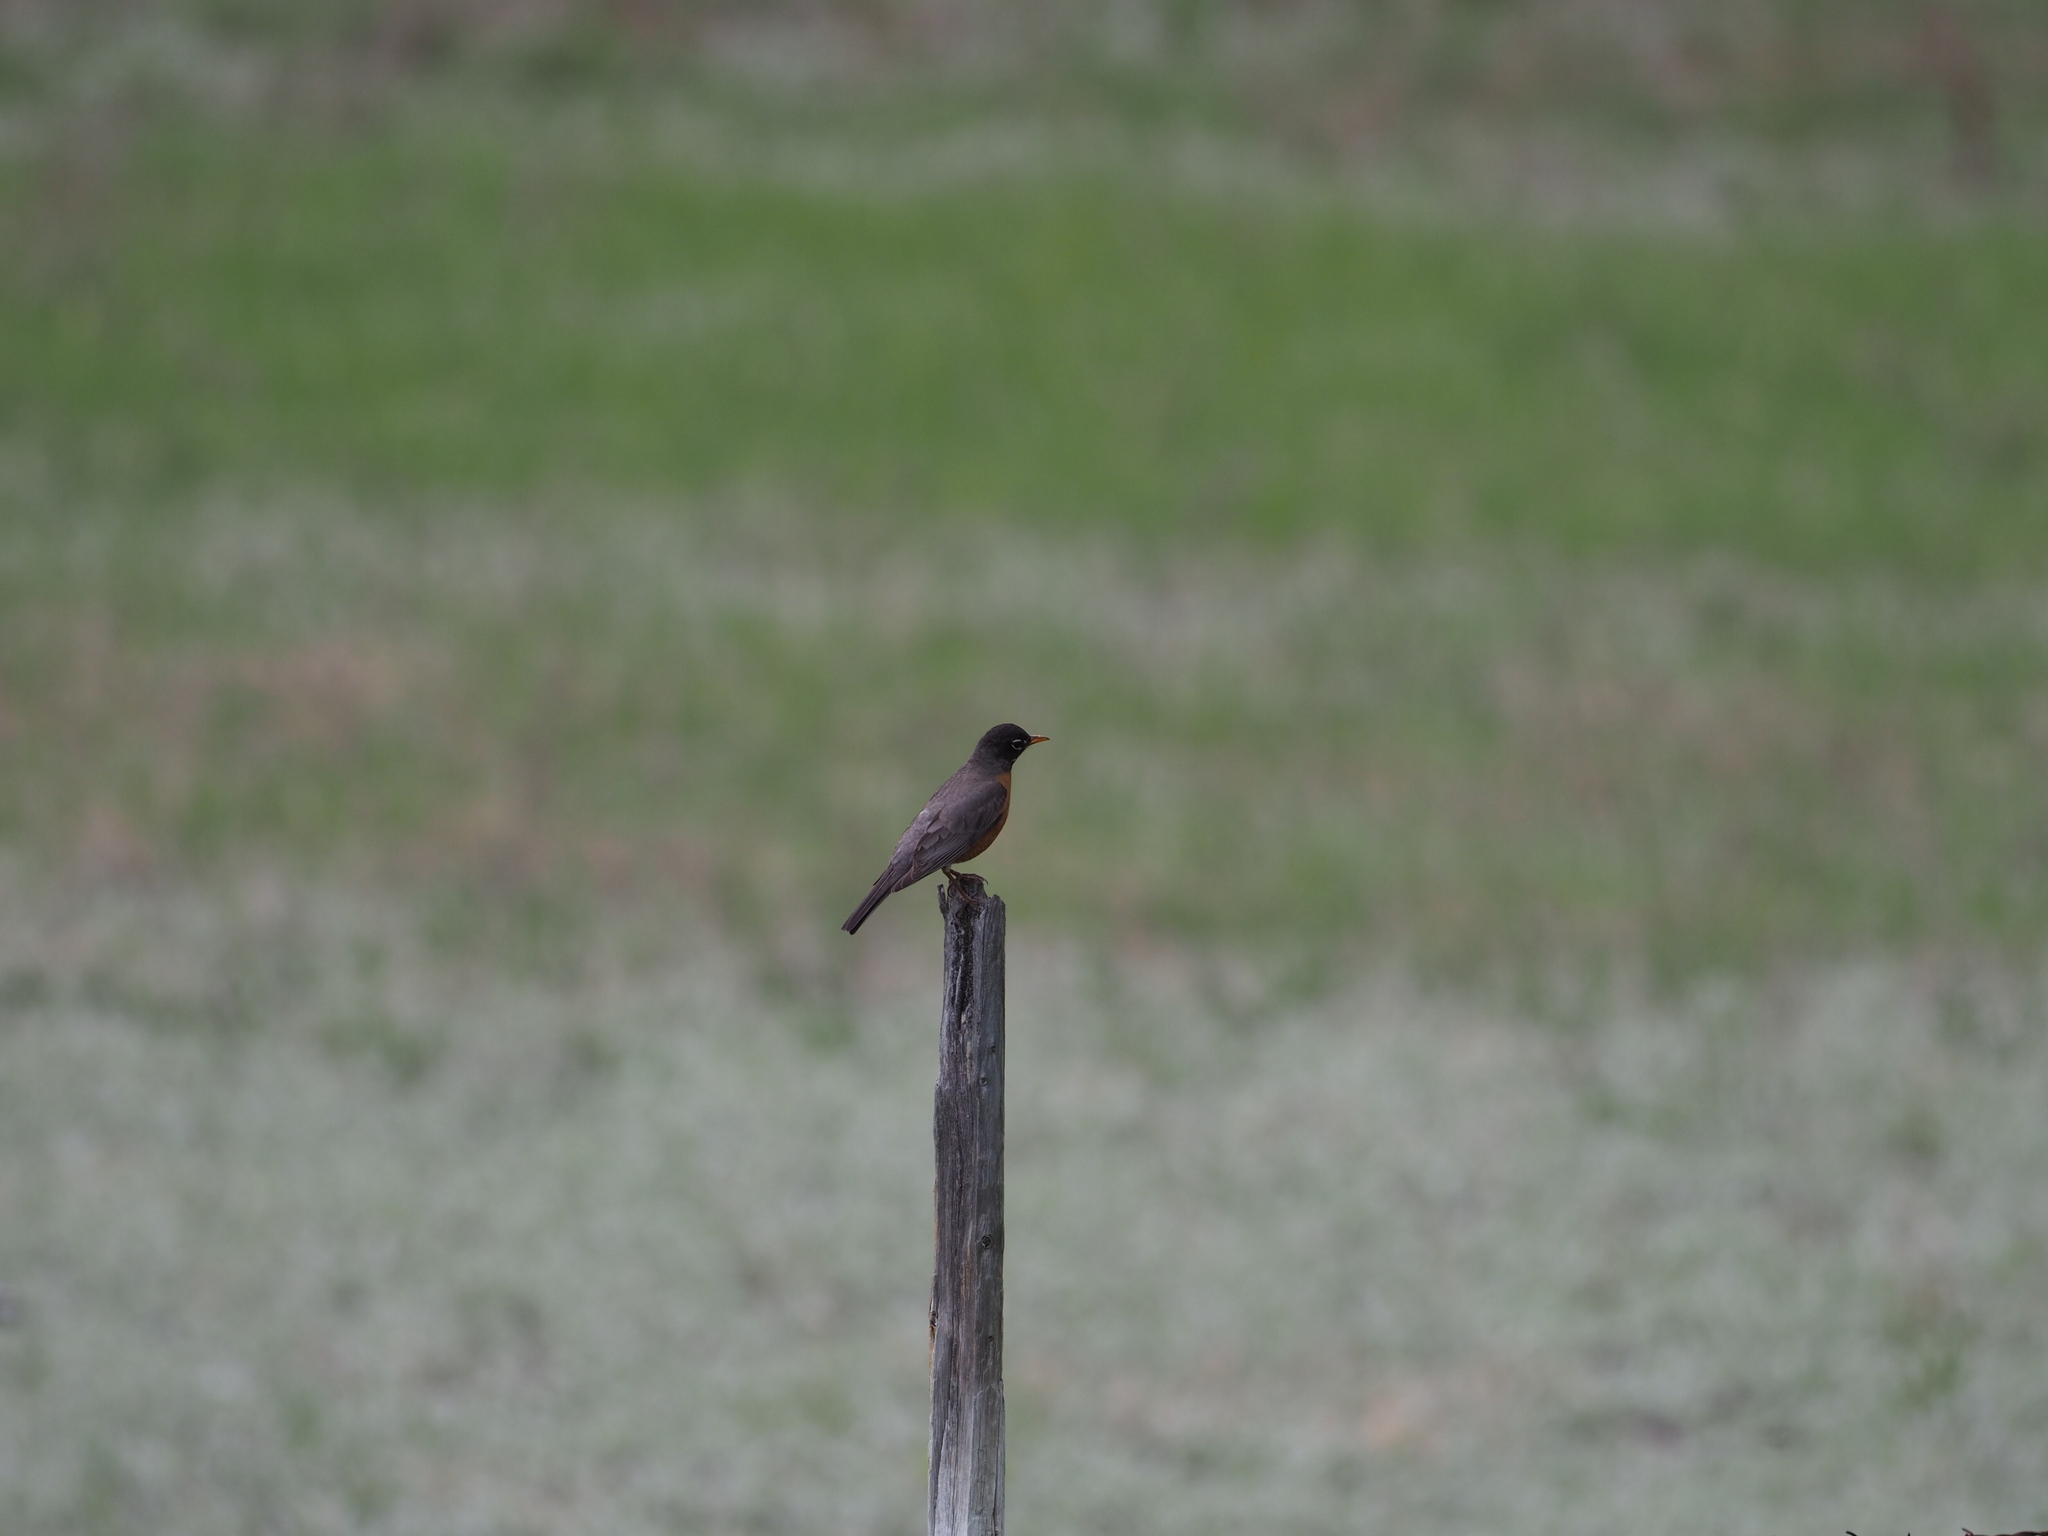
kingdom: Animalia
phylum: Chordata
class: Aves
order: Passeriformes
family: Turdidae
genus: Turdus
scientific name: Turdus migratorius
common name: American robin
